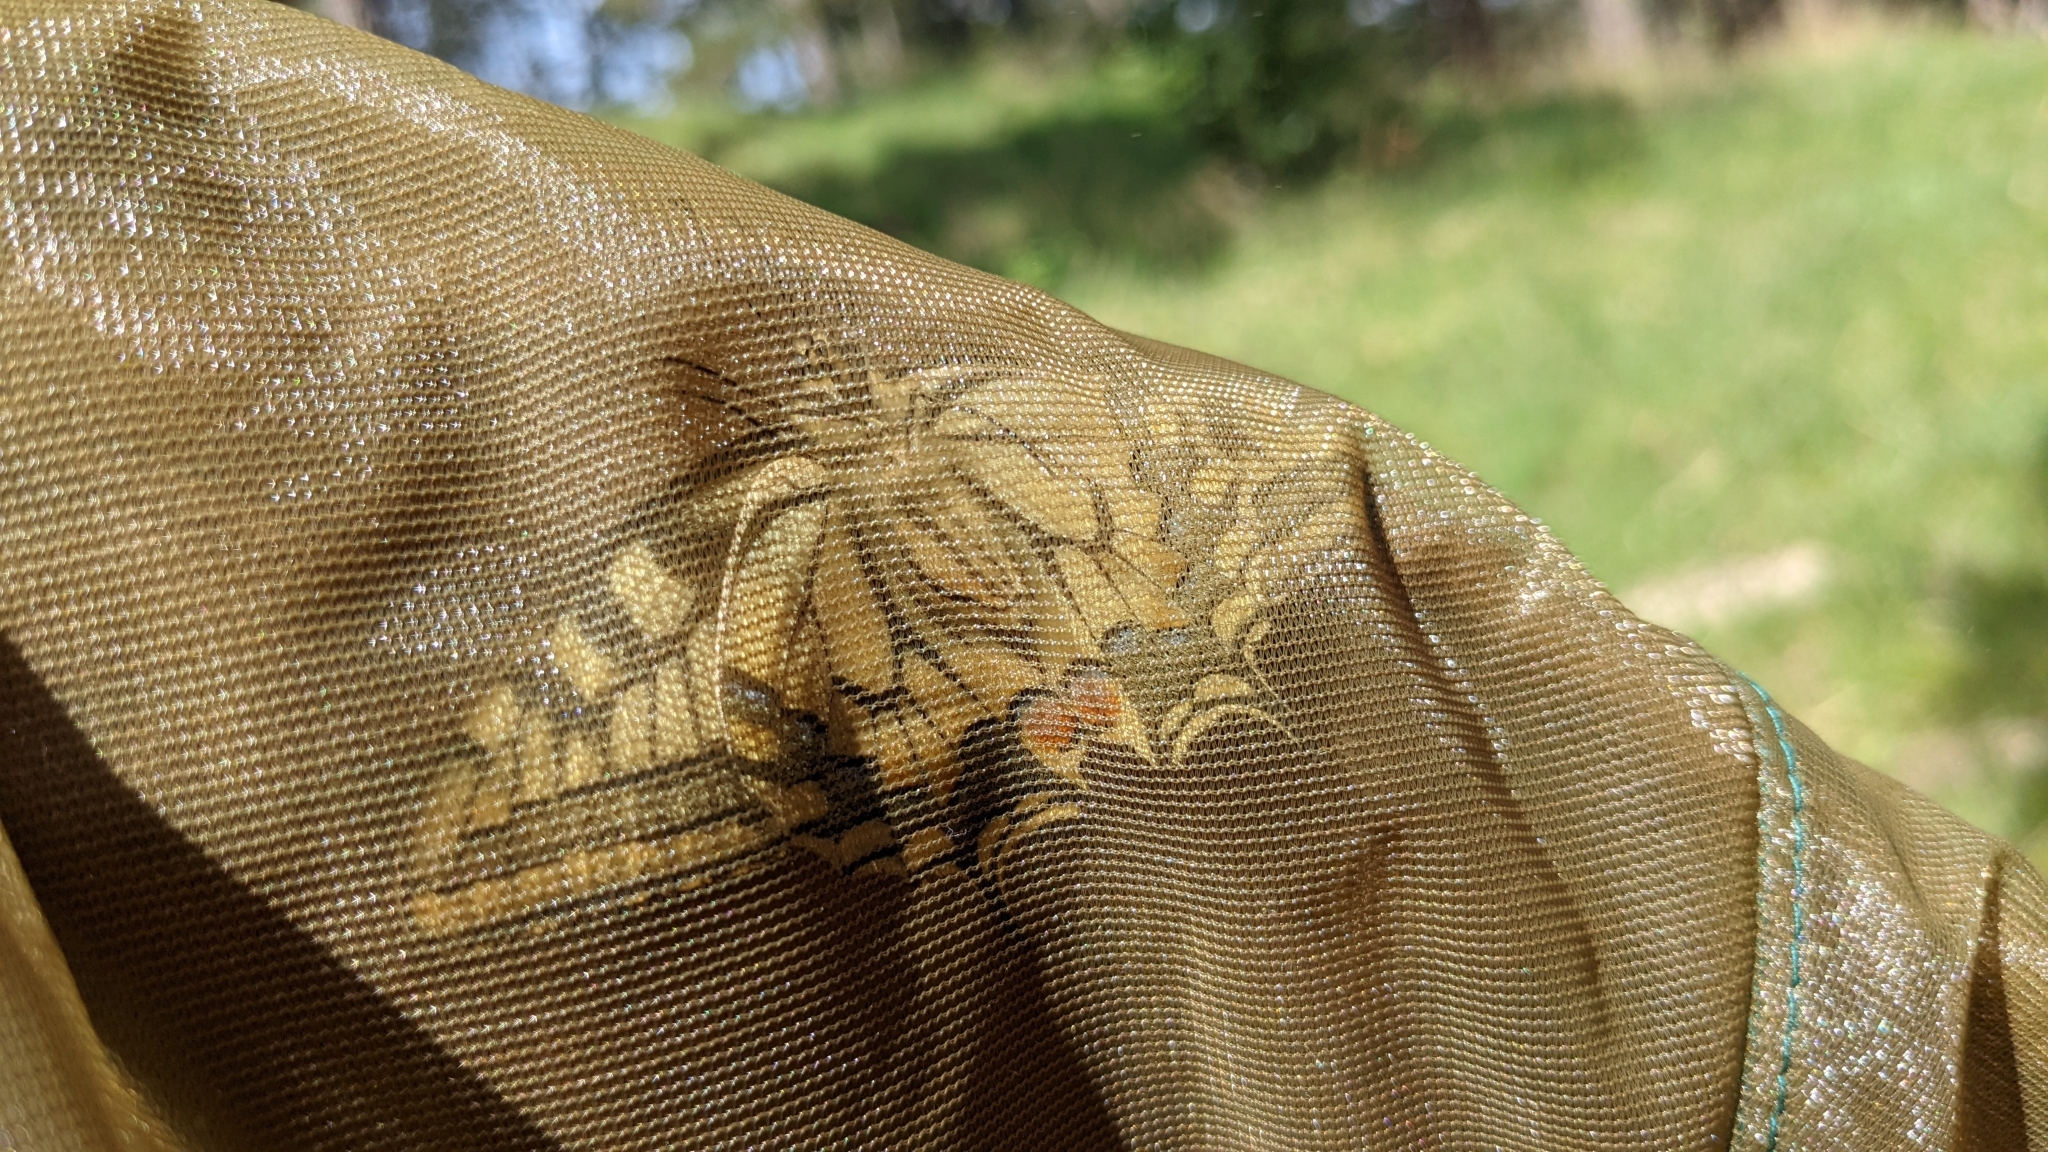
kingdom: Animalia
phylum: Arthropoda
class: Insecta
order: Lepidoptera
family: Papilionidae
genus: Papilio
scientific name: Papilio machaon
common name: Swallowtail
